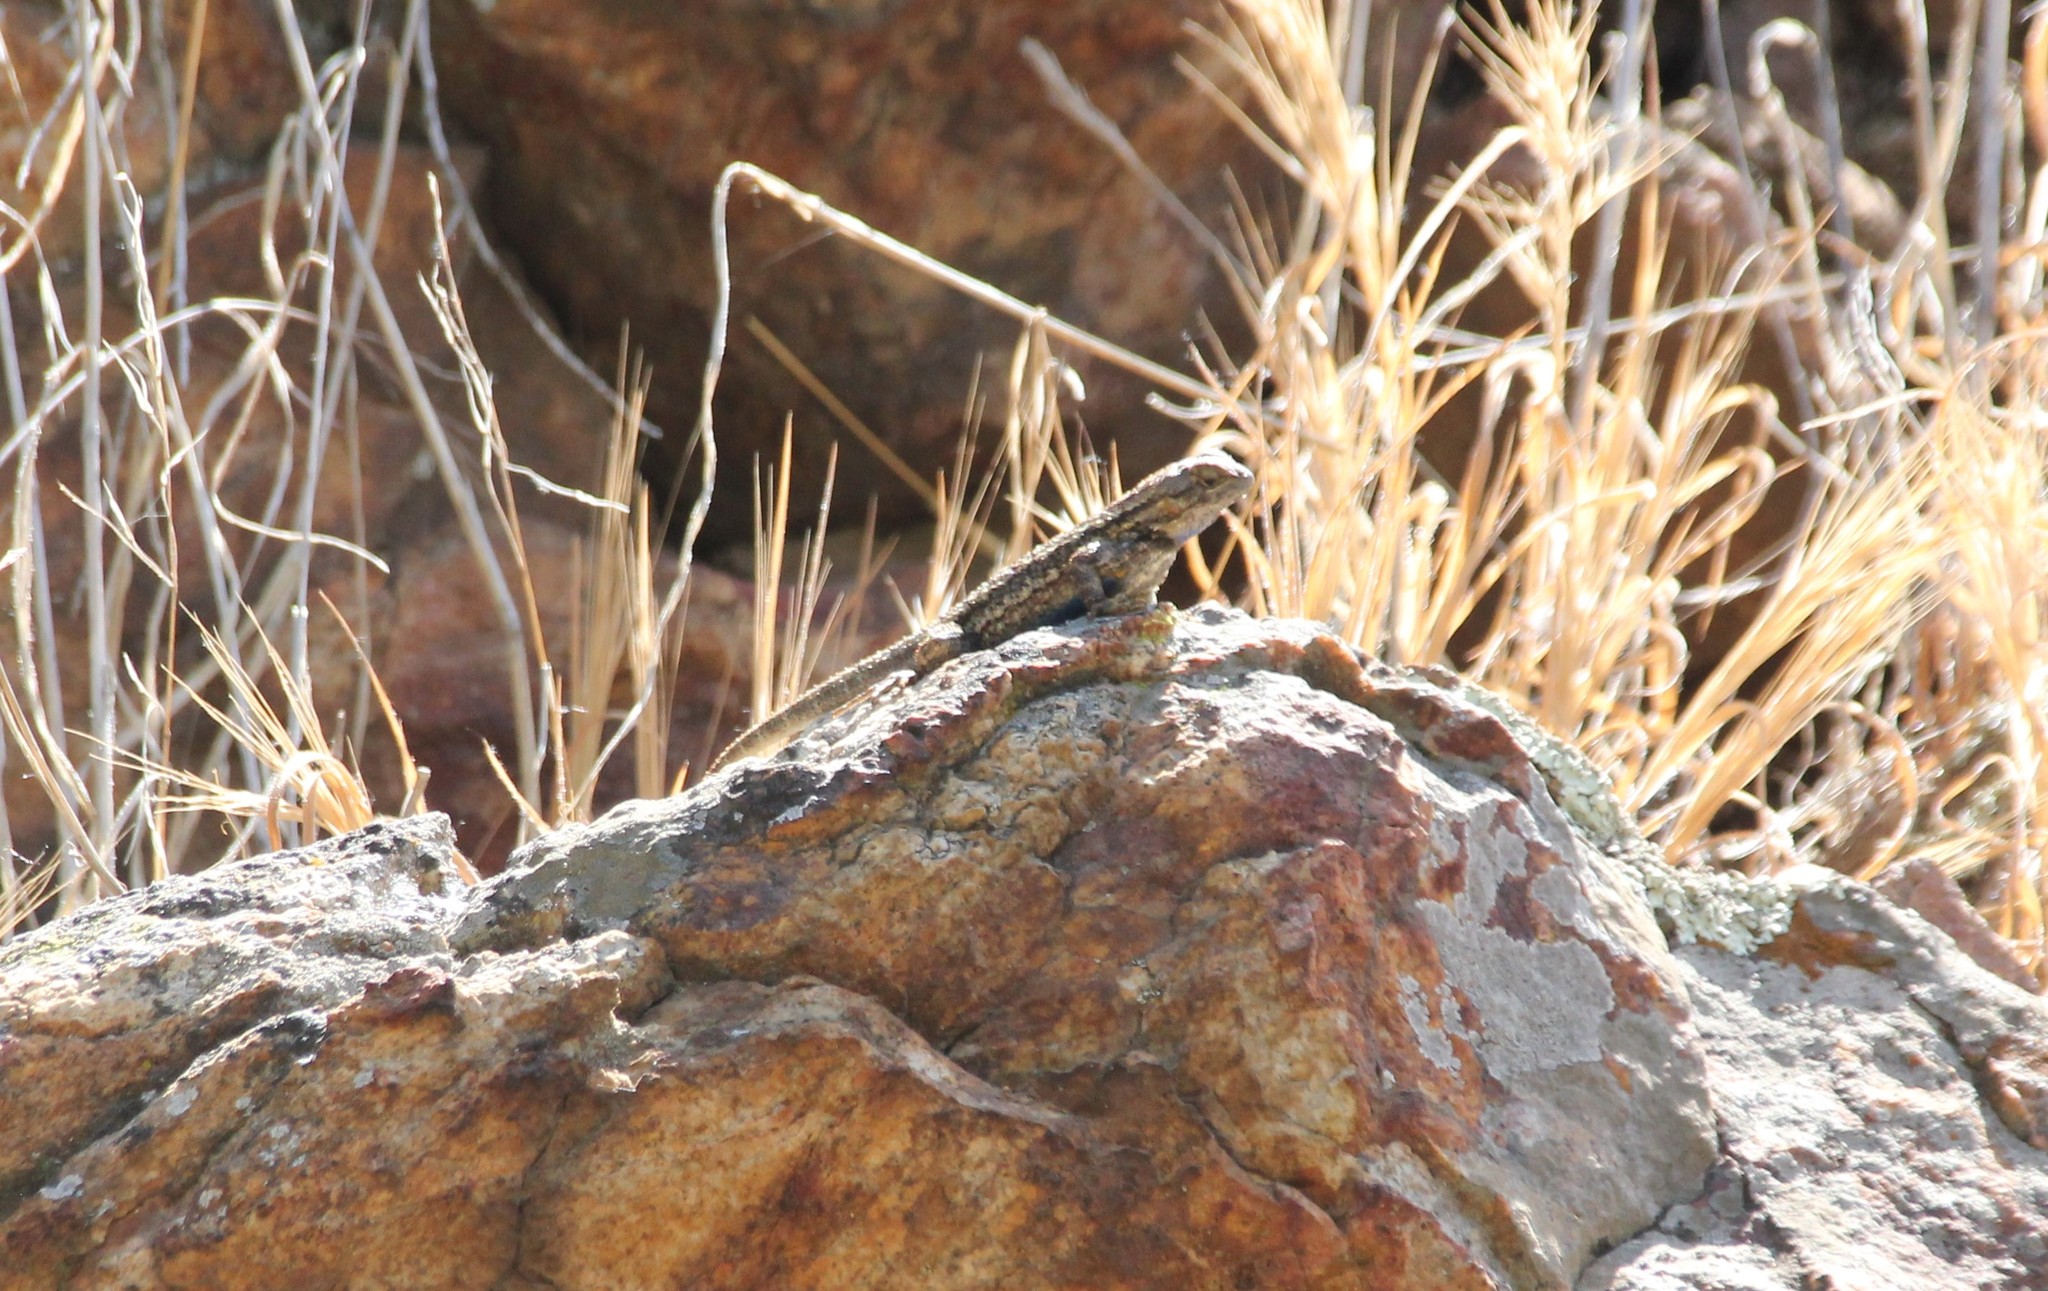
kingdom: Animalia
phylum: Chordata
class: Squamata
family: Phrynosomatidae
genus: Sceloporus
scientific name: Sceloporus occidentalis
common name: Western fence lizard
